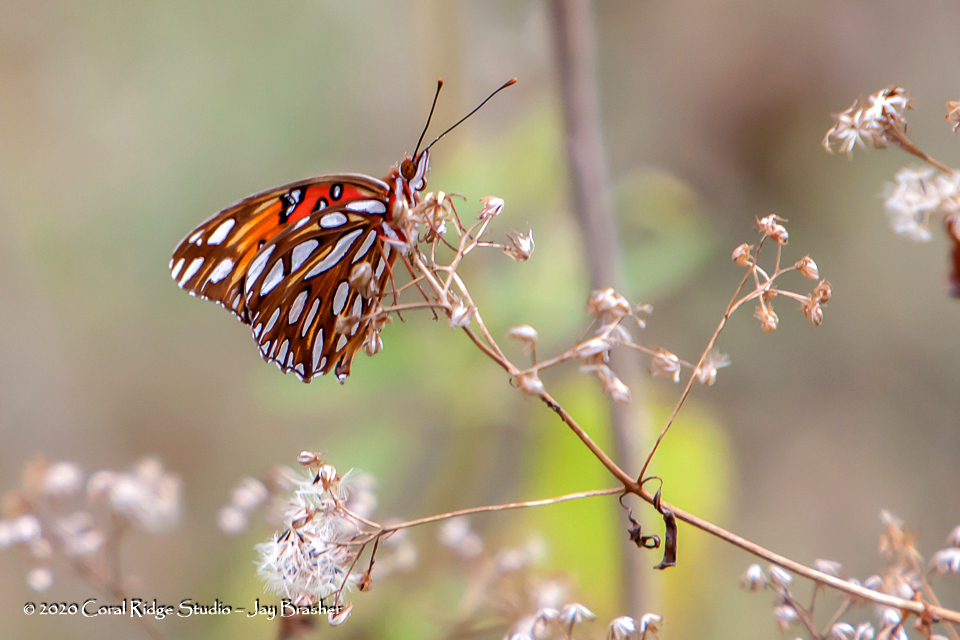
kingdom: Animalia
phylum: Arthropoda
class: Insecta
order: Lepidoptera
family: Nymphalidae
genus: Dione
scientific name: Dione vanillae
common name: Gulf fritillary
